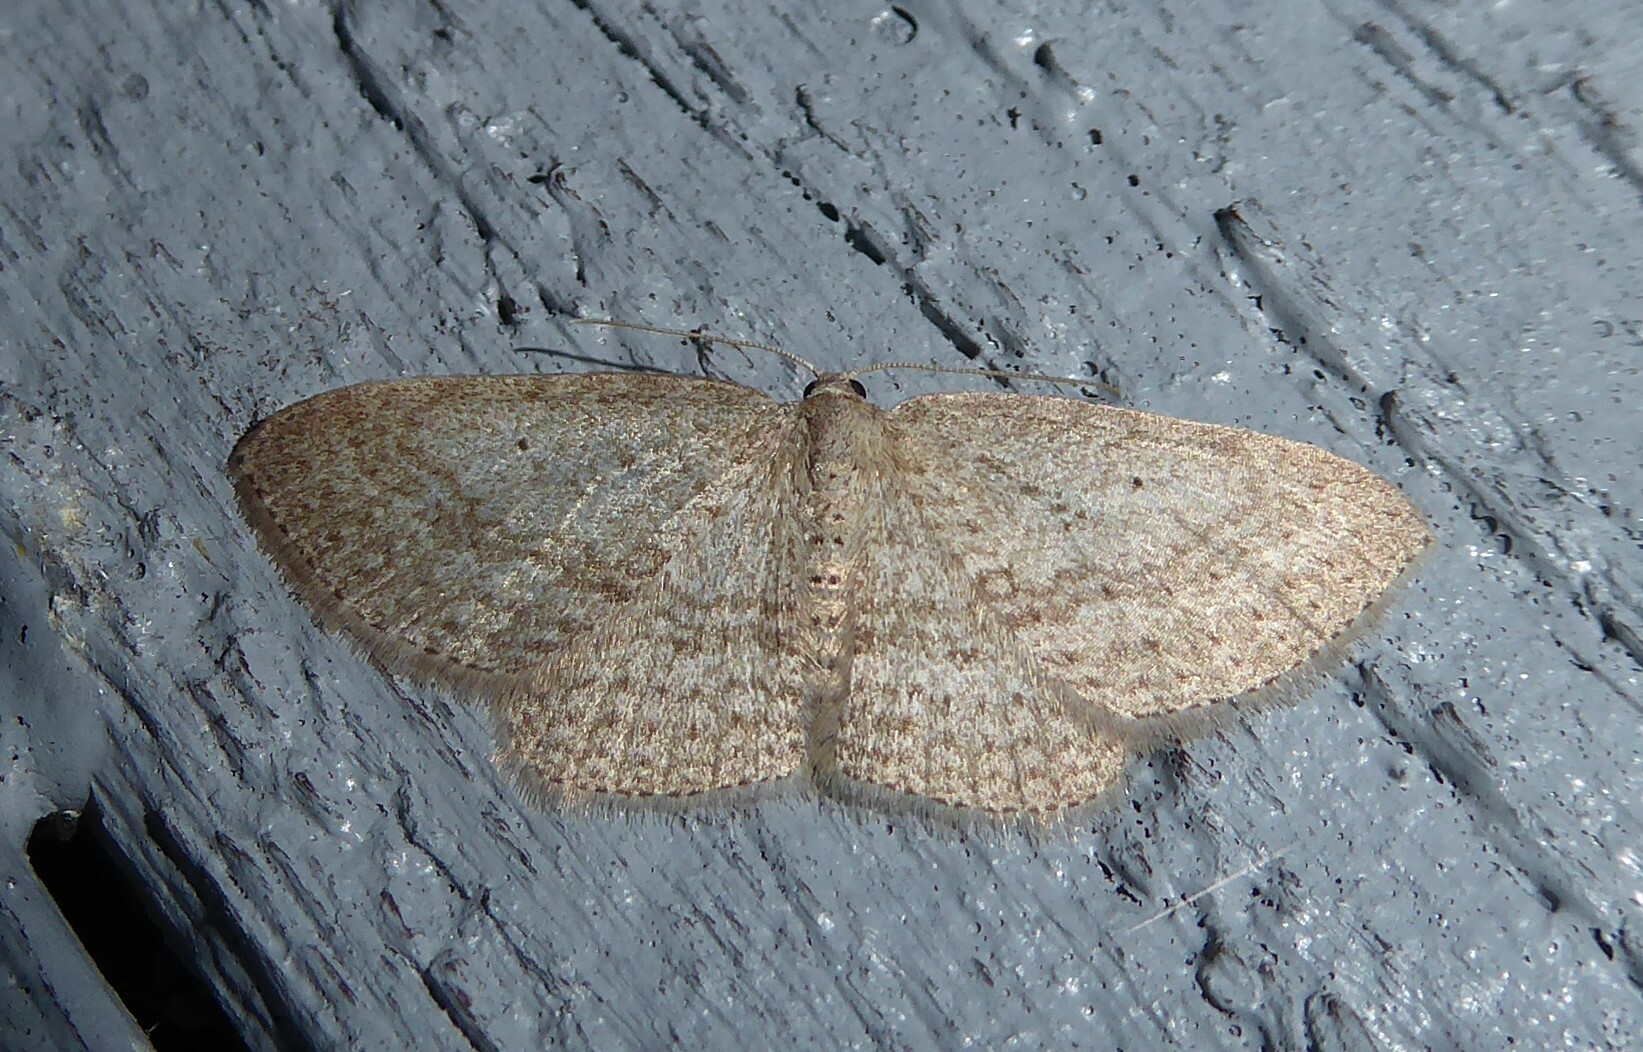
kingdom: Animalia
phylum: Arthropoda
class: Insecta
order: Lepidoptera
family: Geometridae
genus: Poecilasthena
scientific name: Poecilasthena schistaria
